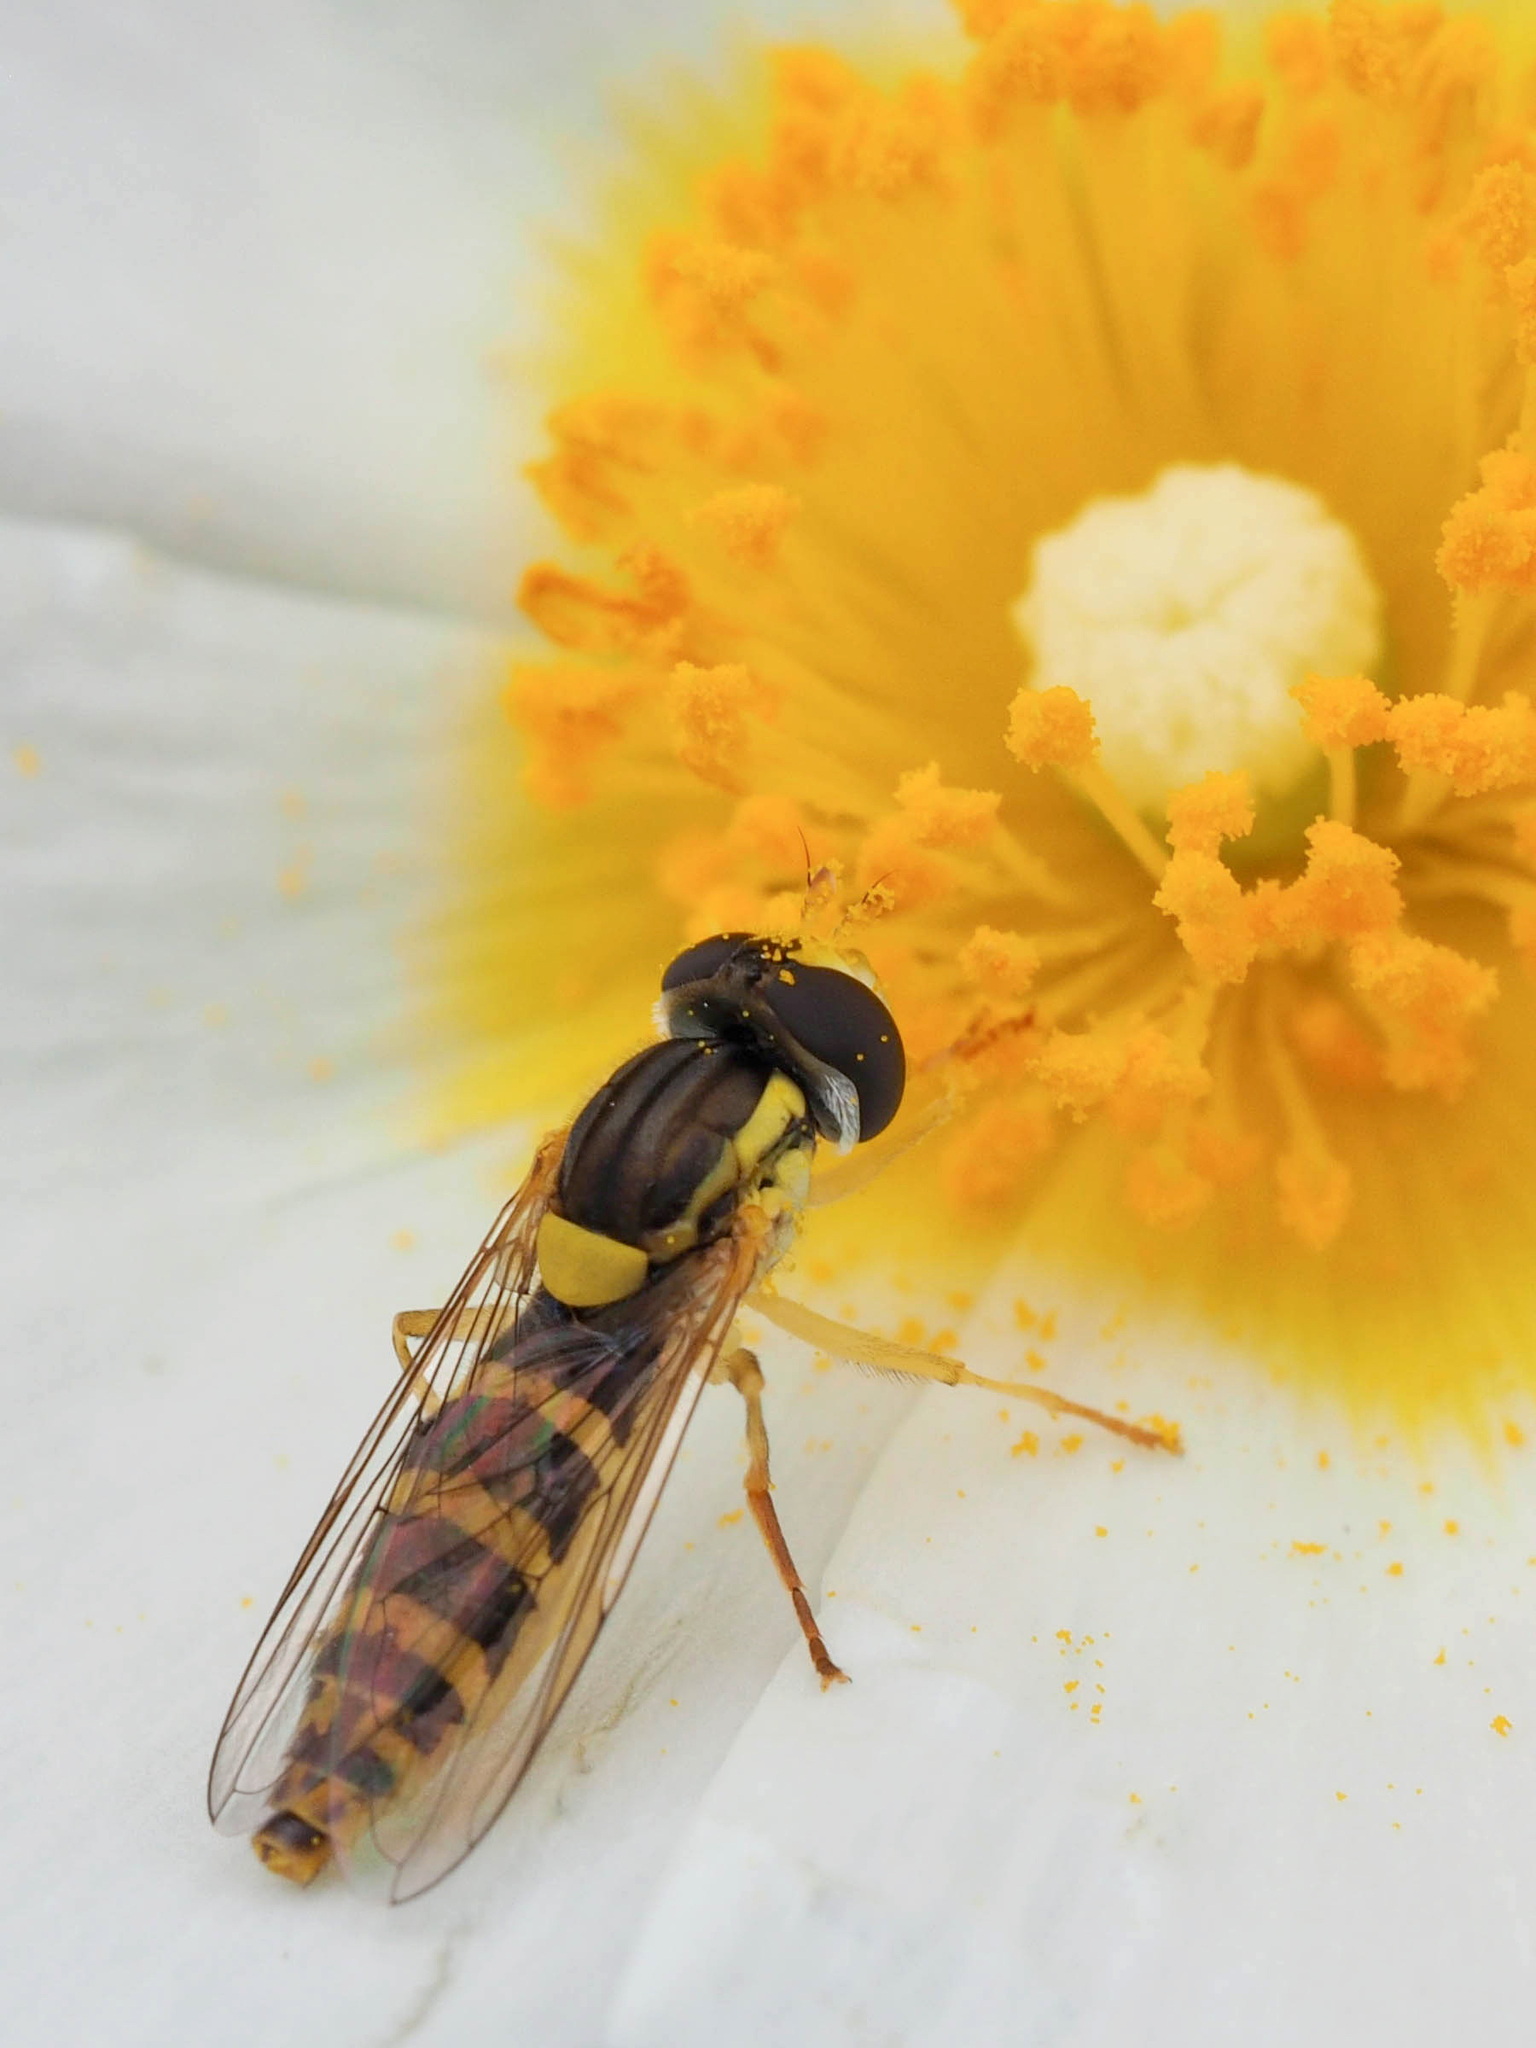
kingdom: Animalia
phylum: Arthropoda
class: Insecta
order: Diptera
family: Syrphidae
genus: Sphaerophoria
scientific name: Sphaerophoria
